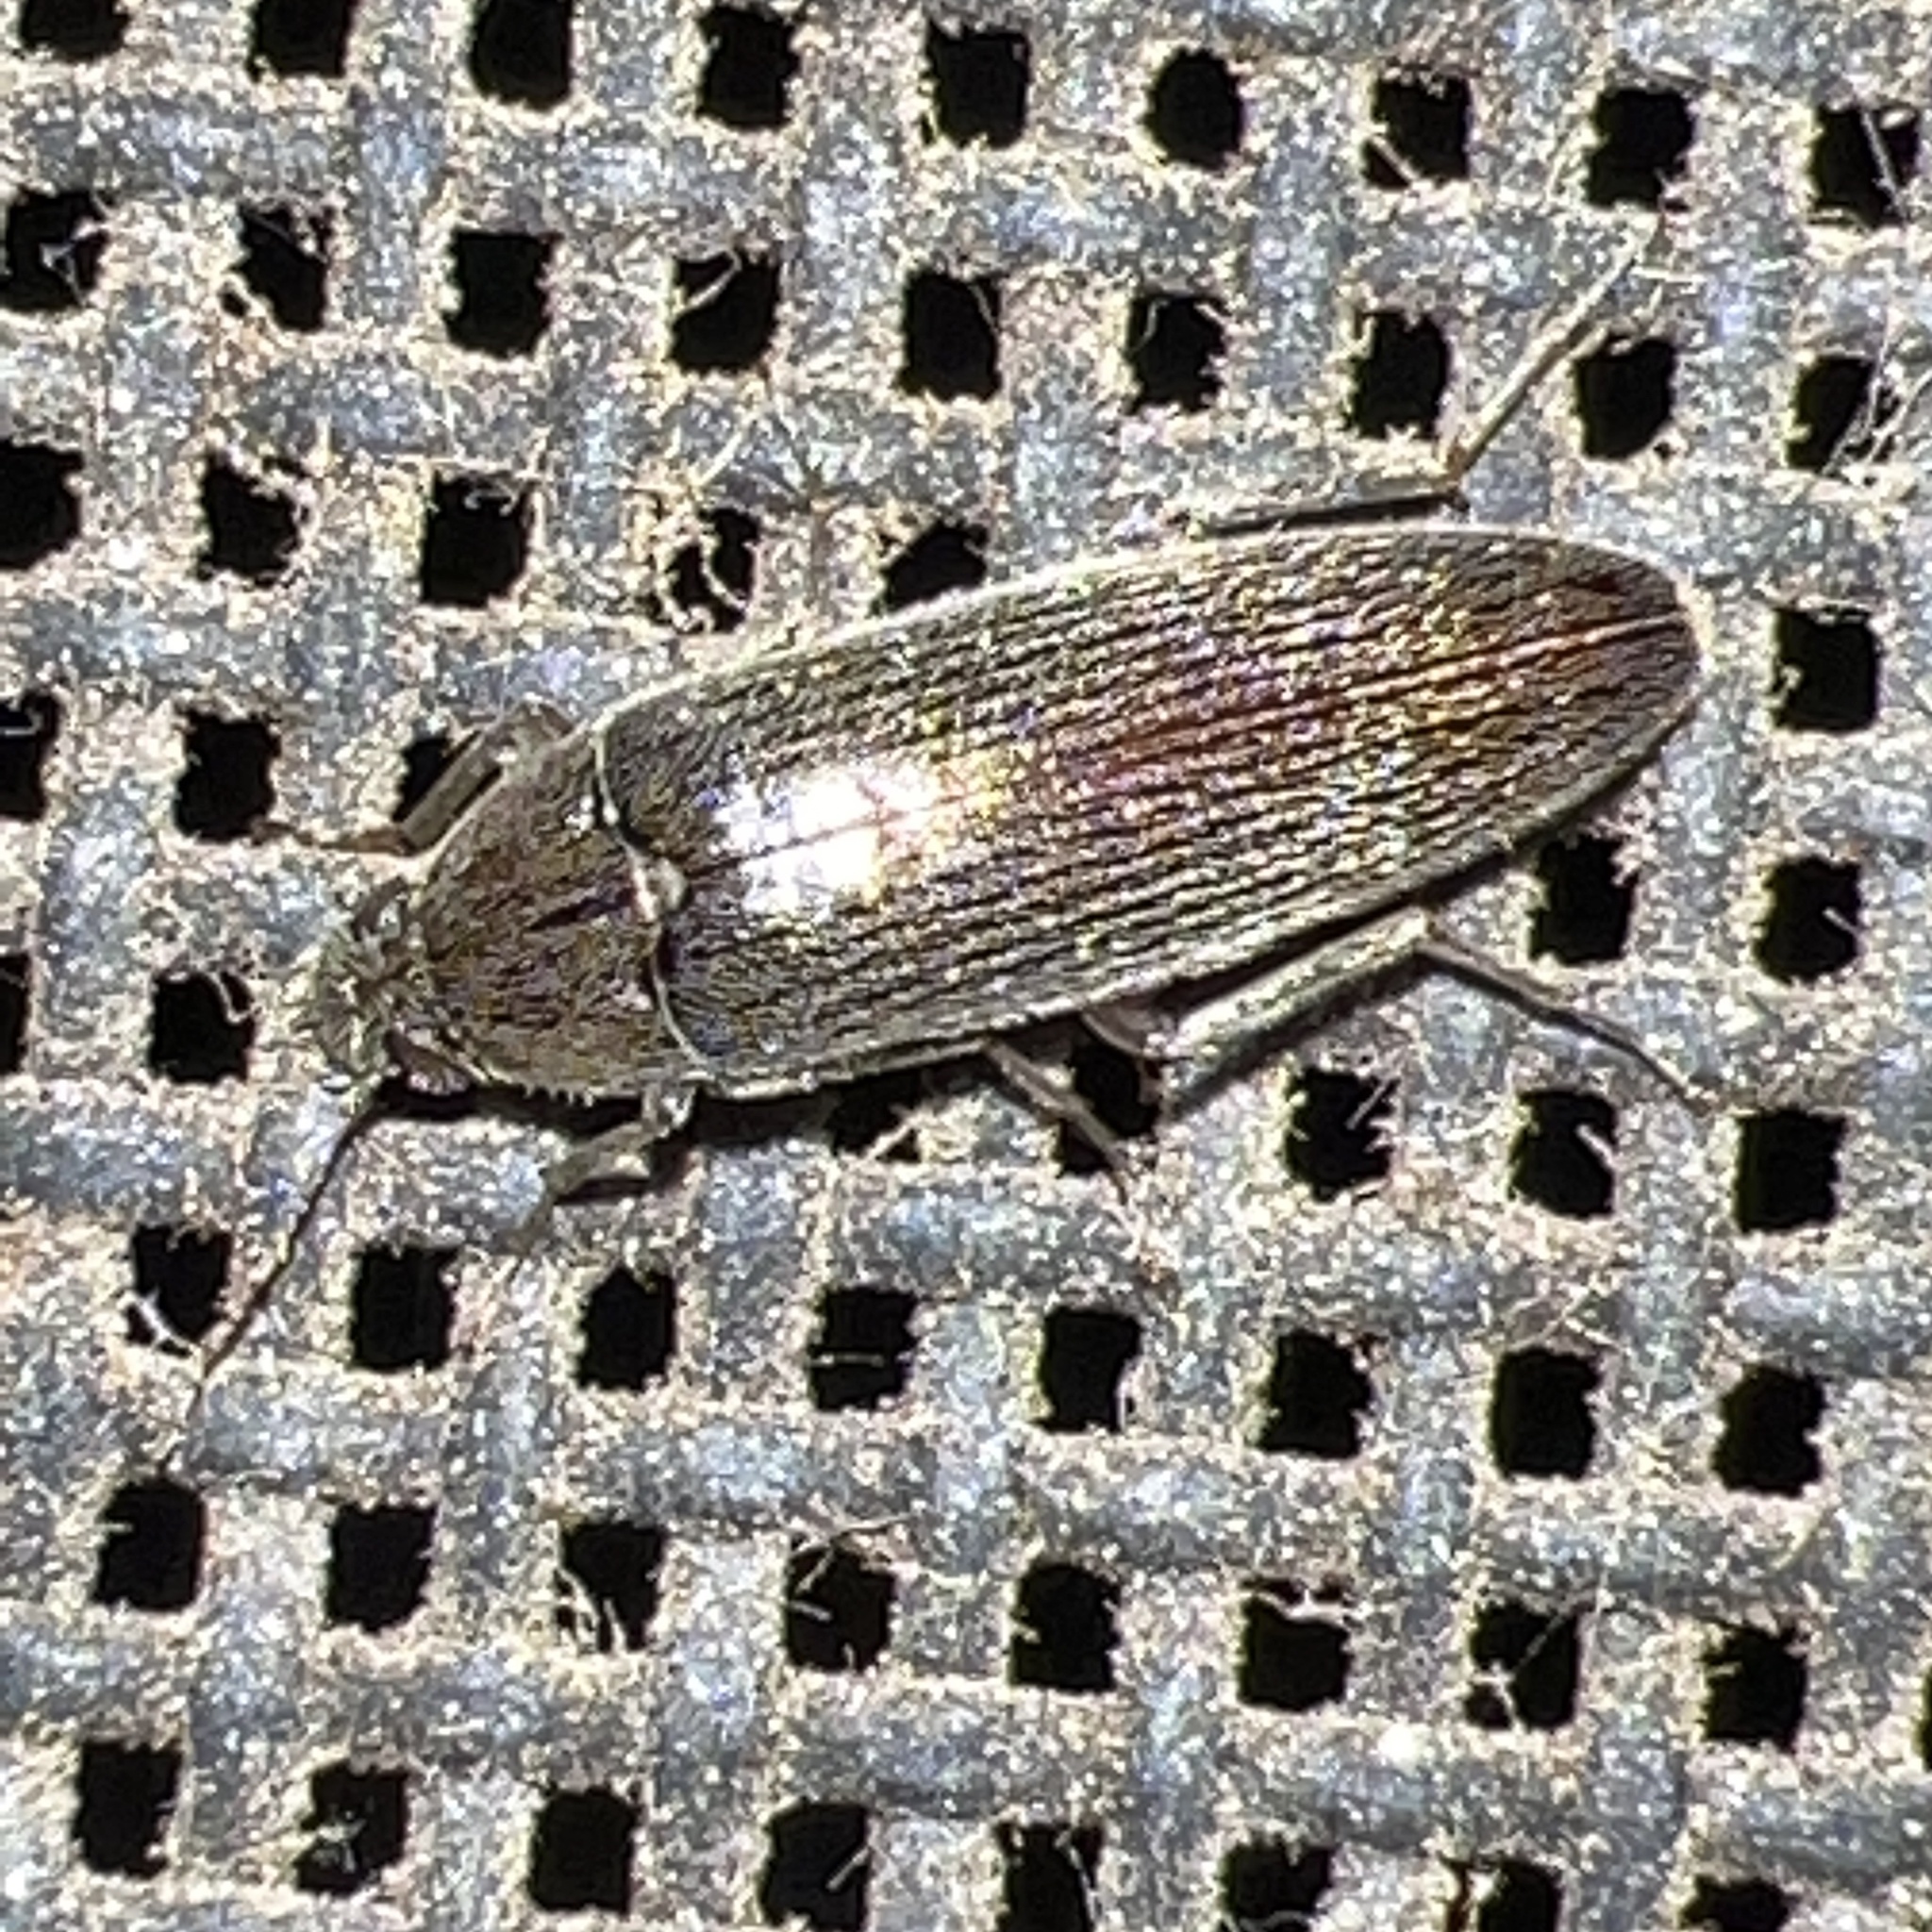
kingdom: Animalia
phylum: Arthropoda
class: Insecta
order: Coleoptera
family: Synchroidae
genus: Synchroa
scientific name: Synchroa punctata
